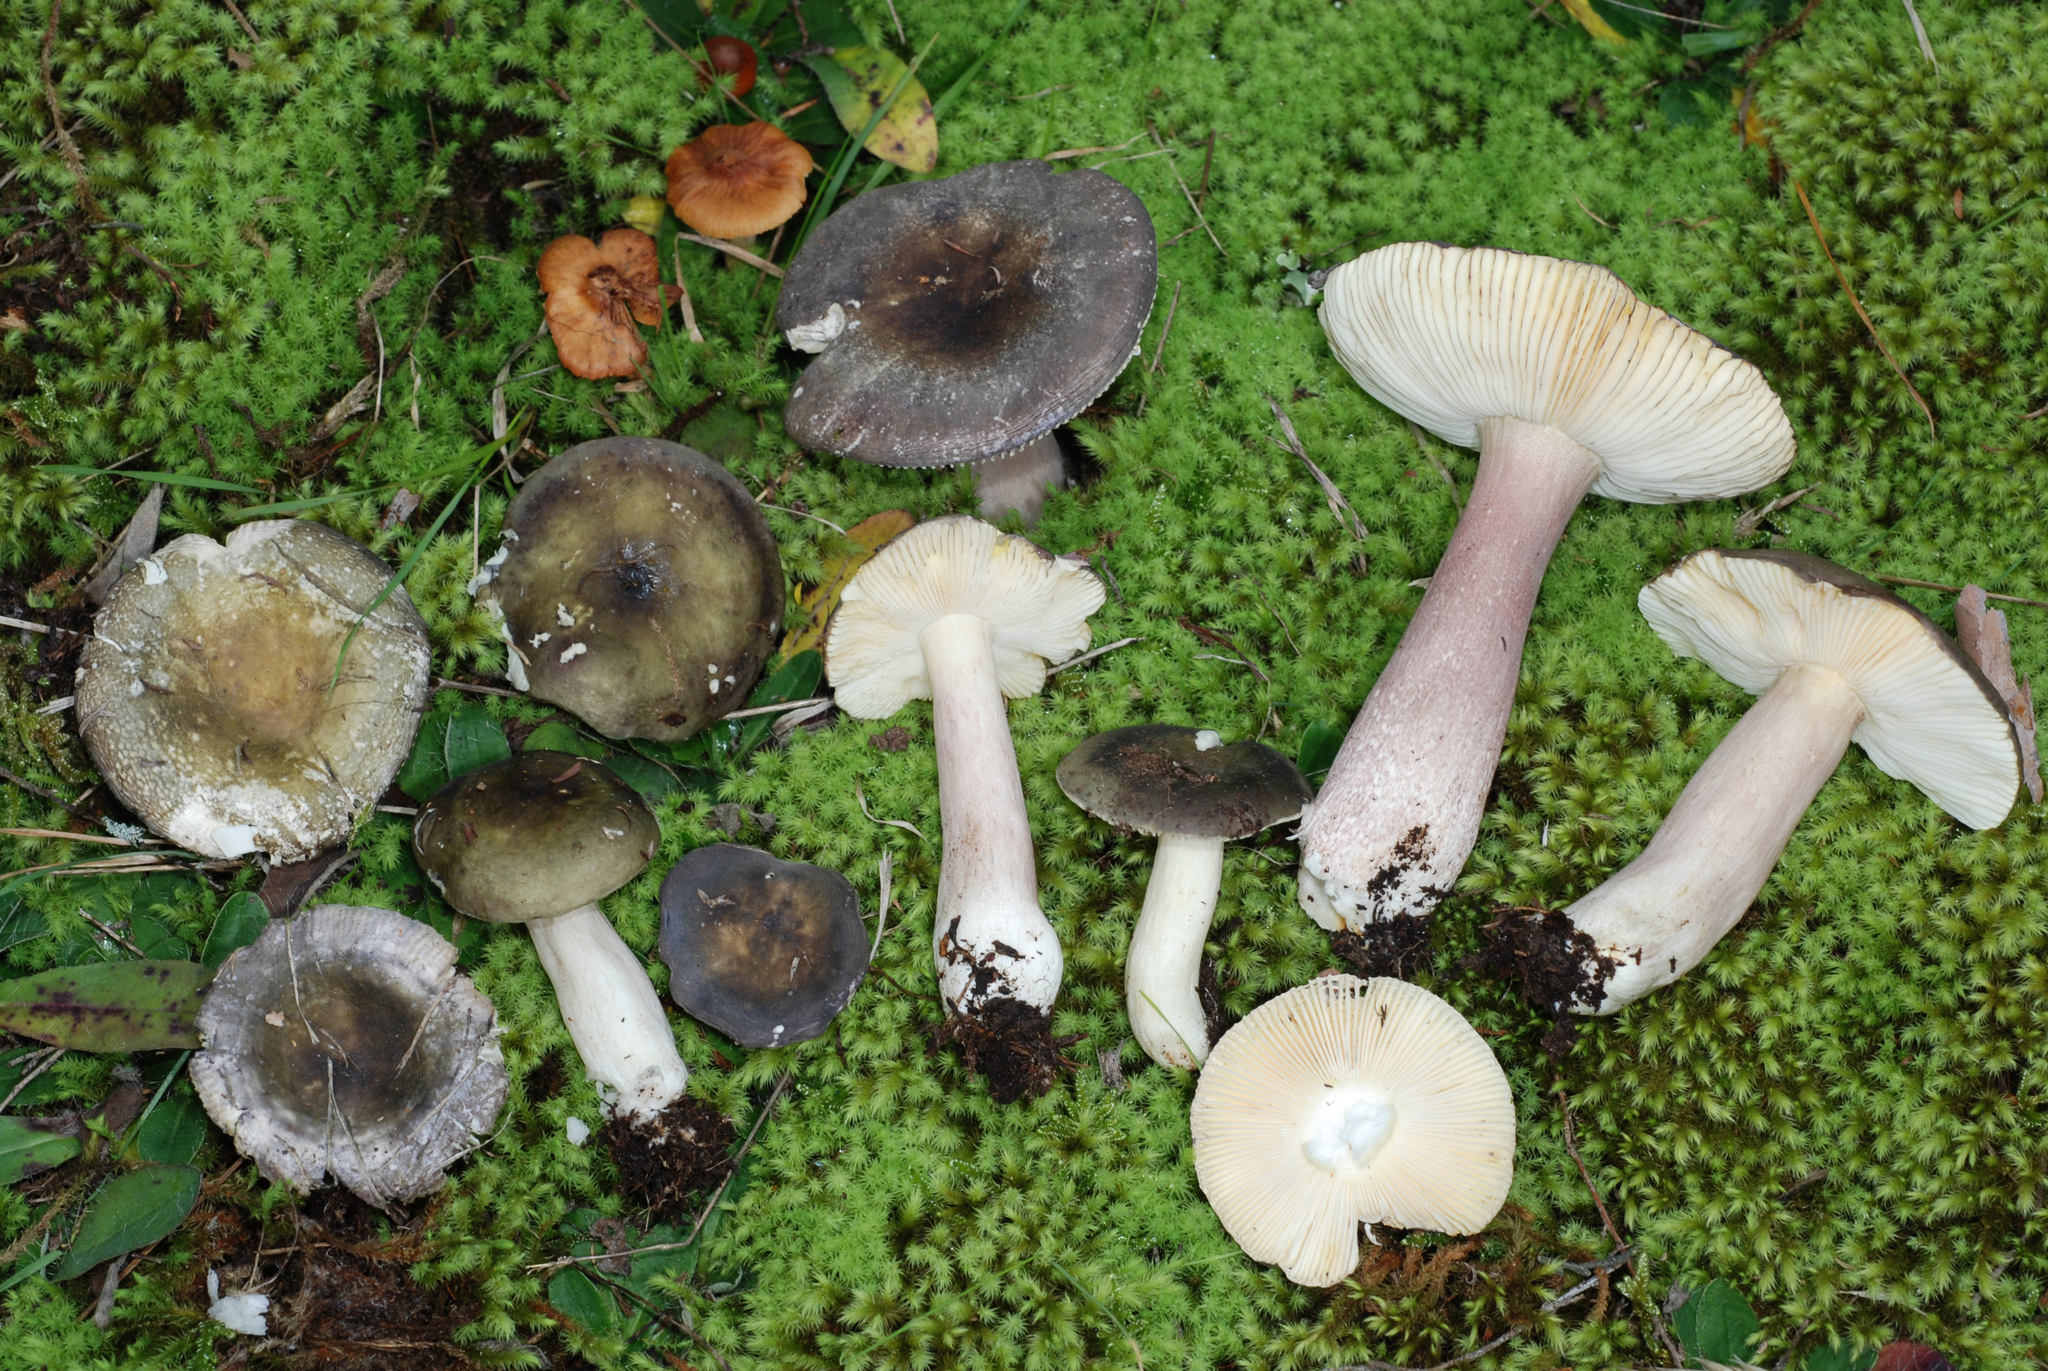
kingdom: Fungi
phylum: Basidiomycota
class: Agaricomycetes
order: Russulales
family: Russulaceae
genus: Russula
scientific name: Russula
